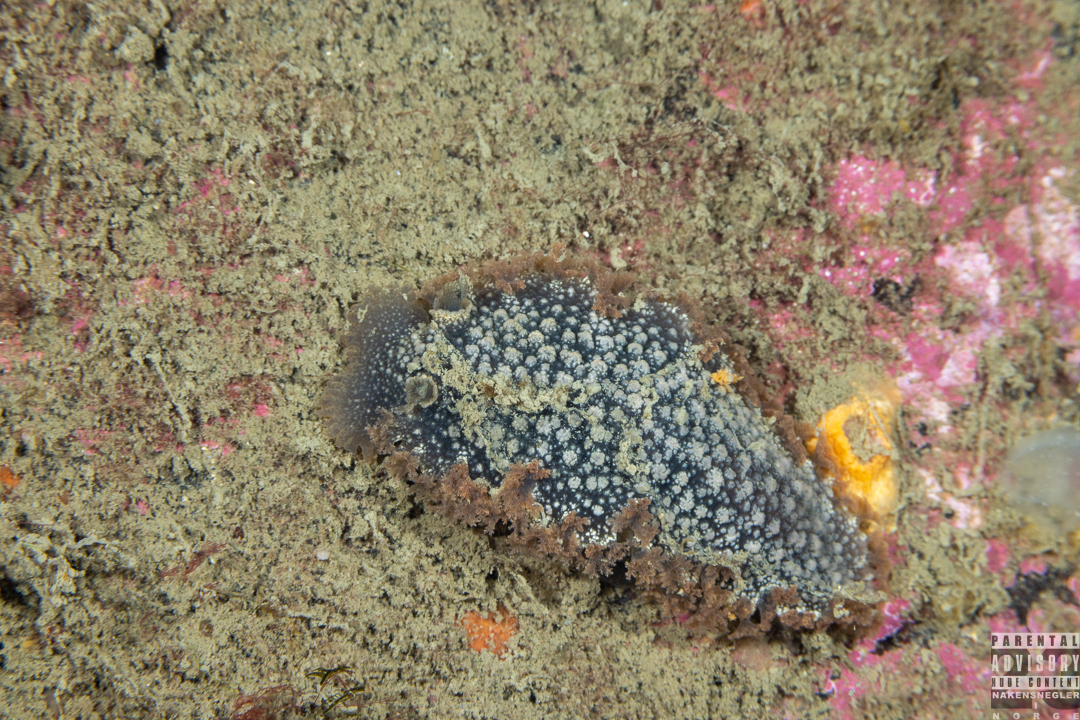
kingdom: Animalia
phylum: Mollusca
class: Gastropoda
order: Nudibranchia
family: Tritoniidae
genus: Tritonia
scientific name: Tritonia hombergii
